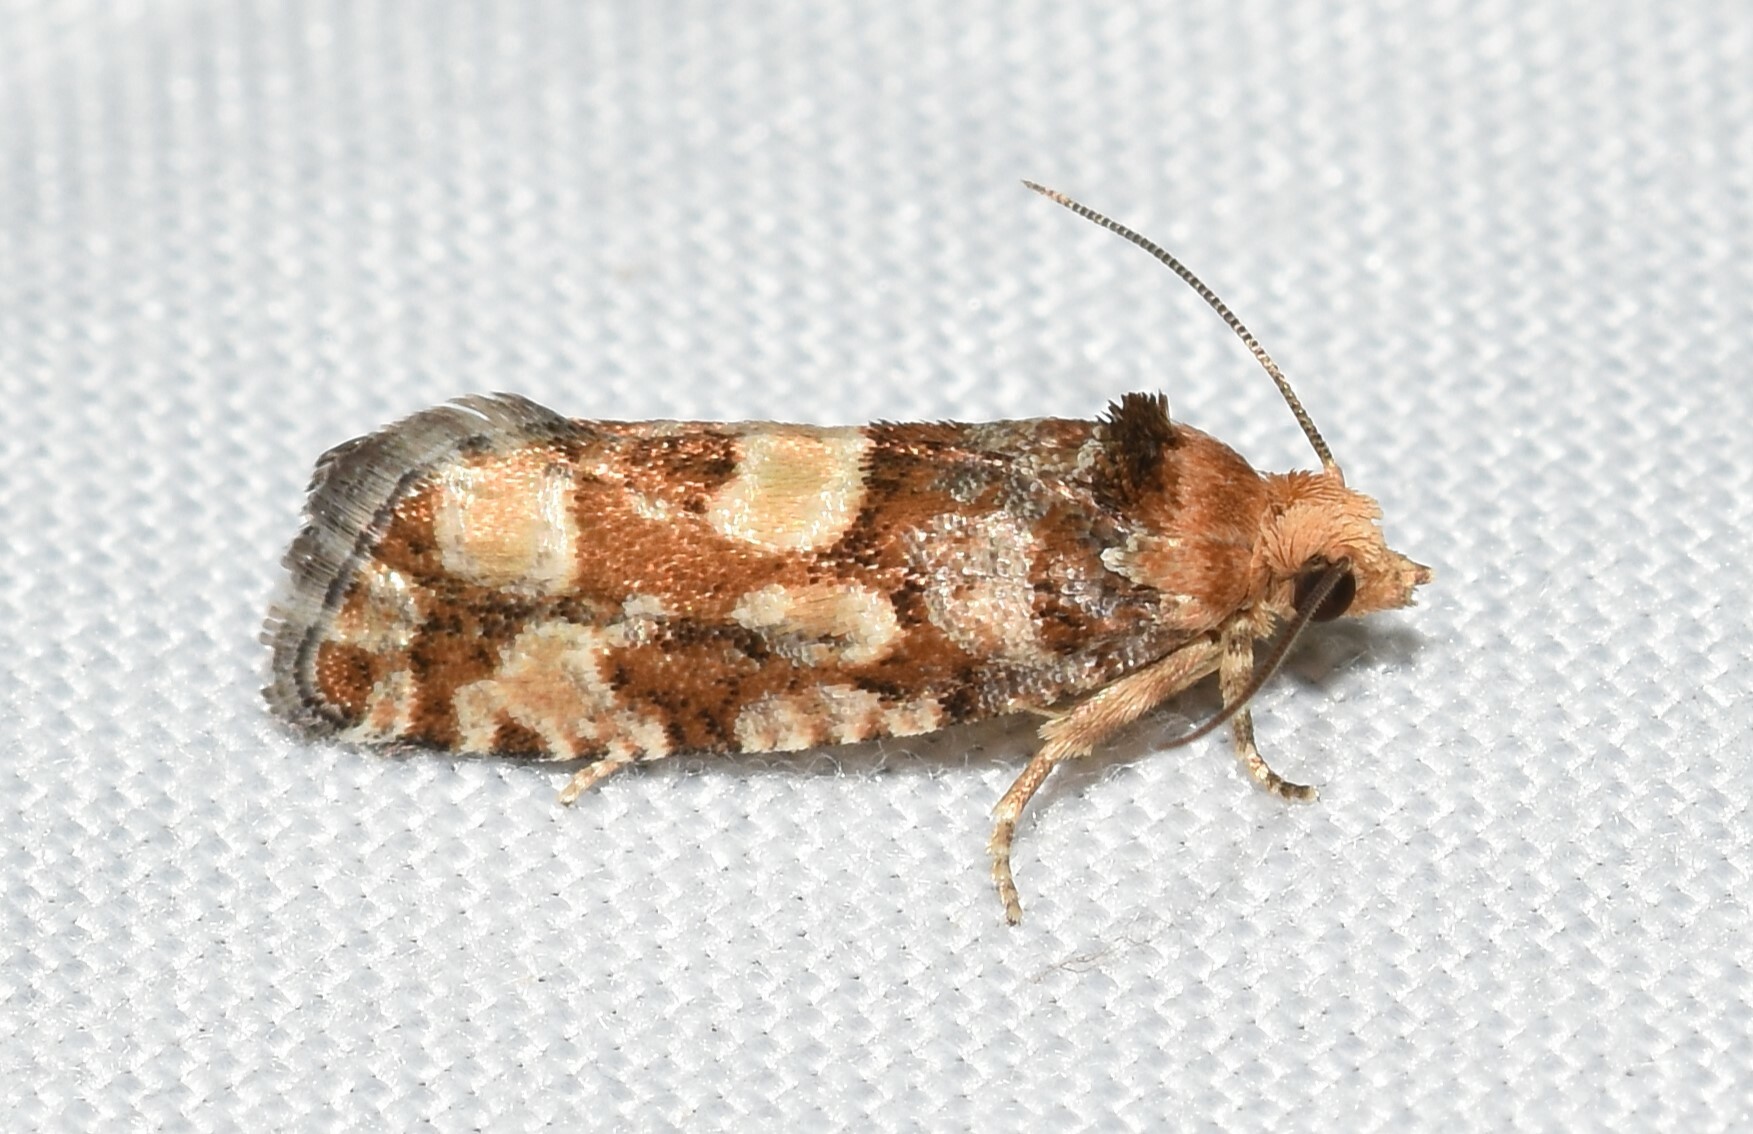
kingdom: Animalia
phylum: Arthropoda
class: Insecta
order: Lepidoptera
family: Tortricidae
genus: Eucopina
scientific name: Eucopina tocullionana
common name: White pinecone borer moth
